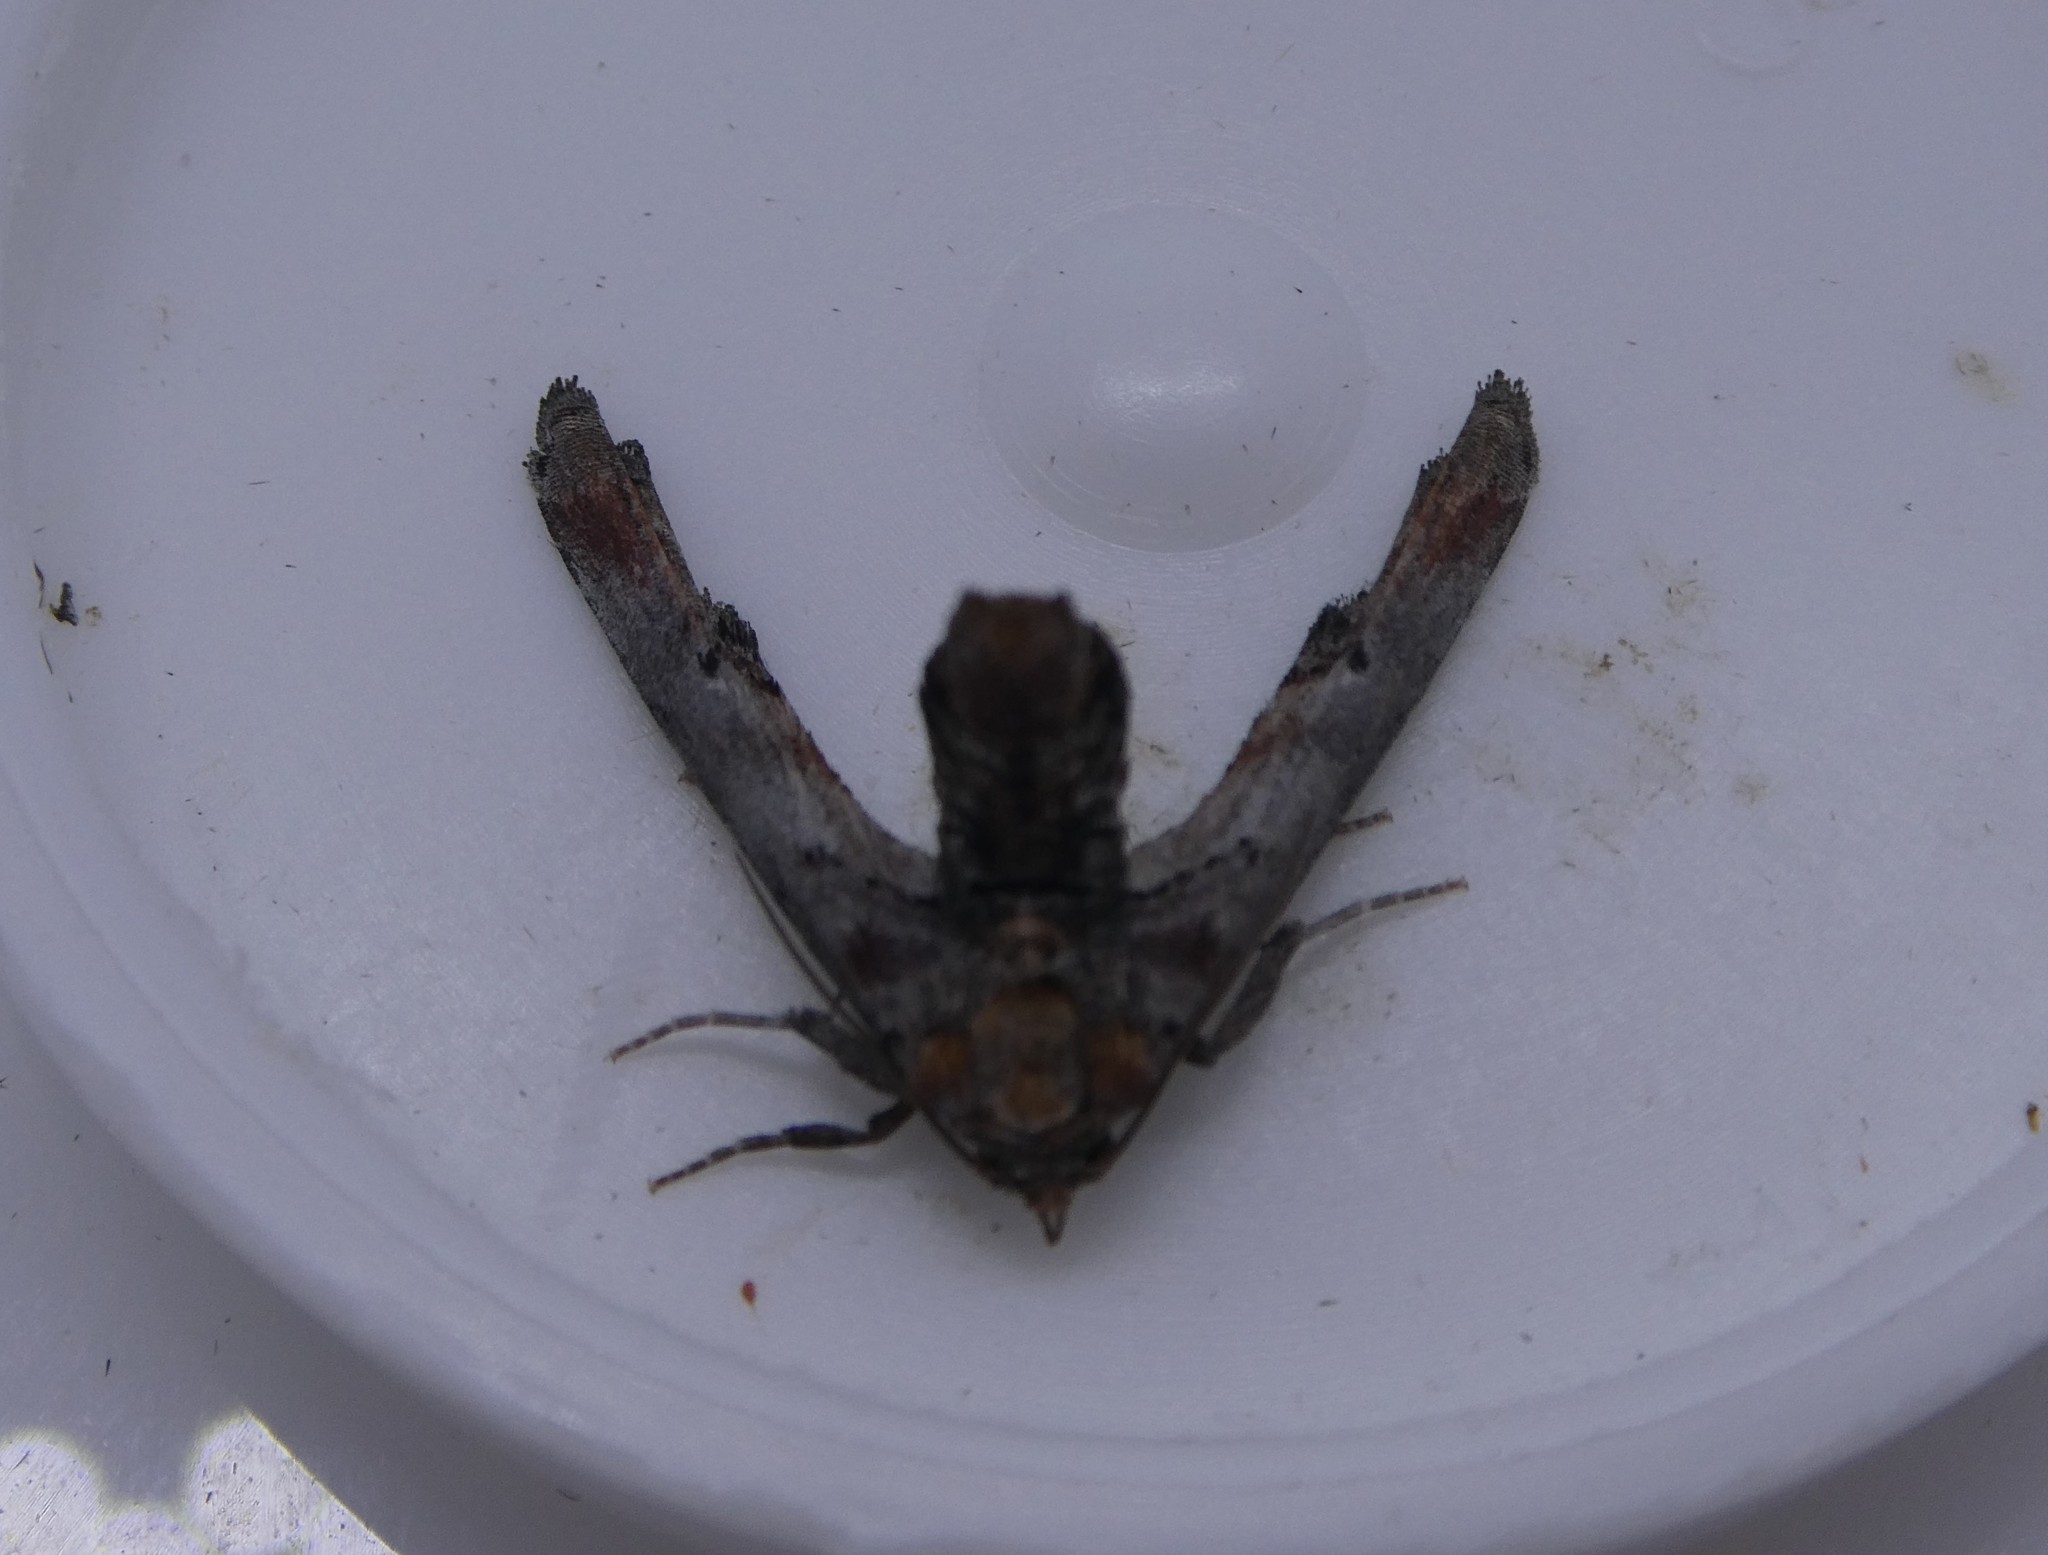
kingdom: Animalia
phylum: Arthropoda
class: Insecta
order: Lepidoptera
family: Euteliidae
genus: Marathyssa
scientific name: Marathyssa inficita
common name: Dark marathyssa moth
